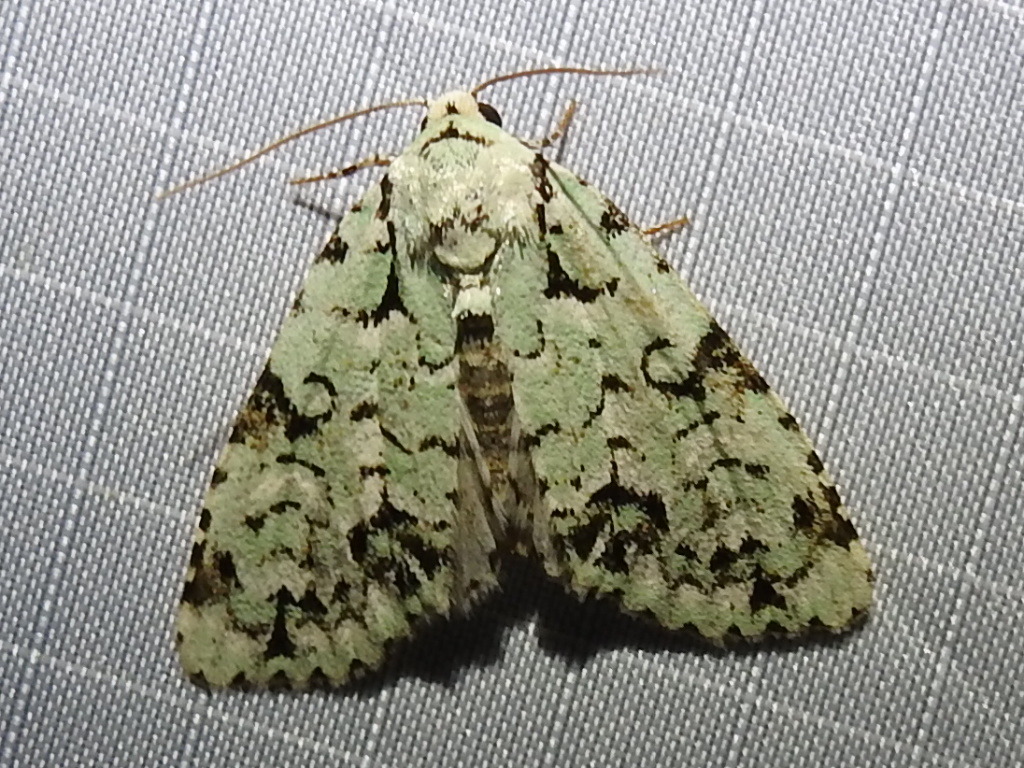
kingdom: Animalia
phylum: Arthropoda
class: Insecta
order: Lepidoptera
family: Noctuidae
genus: Chloronycta
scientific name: Chloronycta tybo
